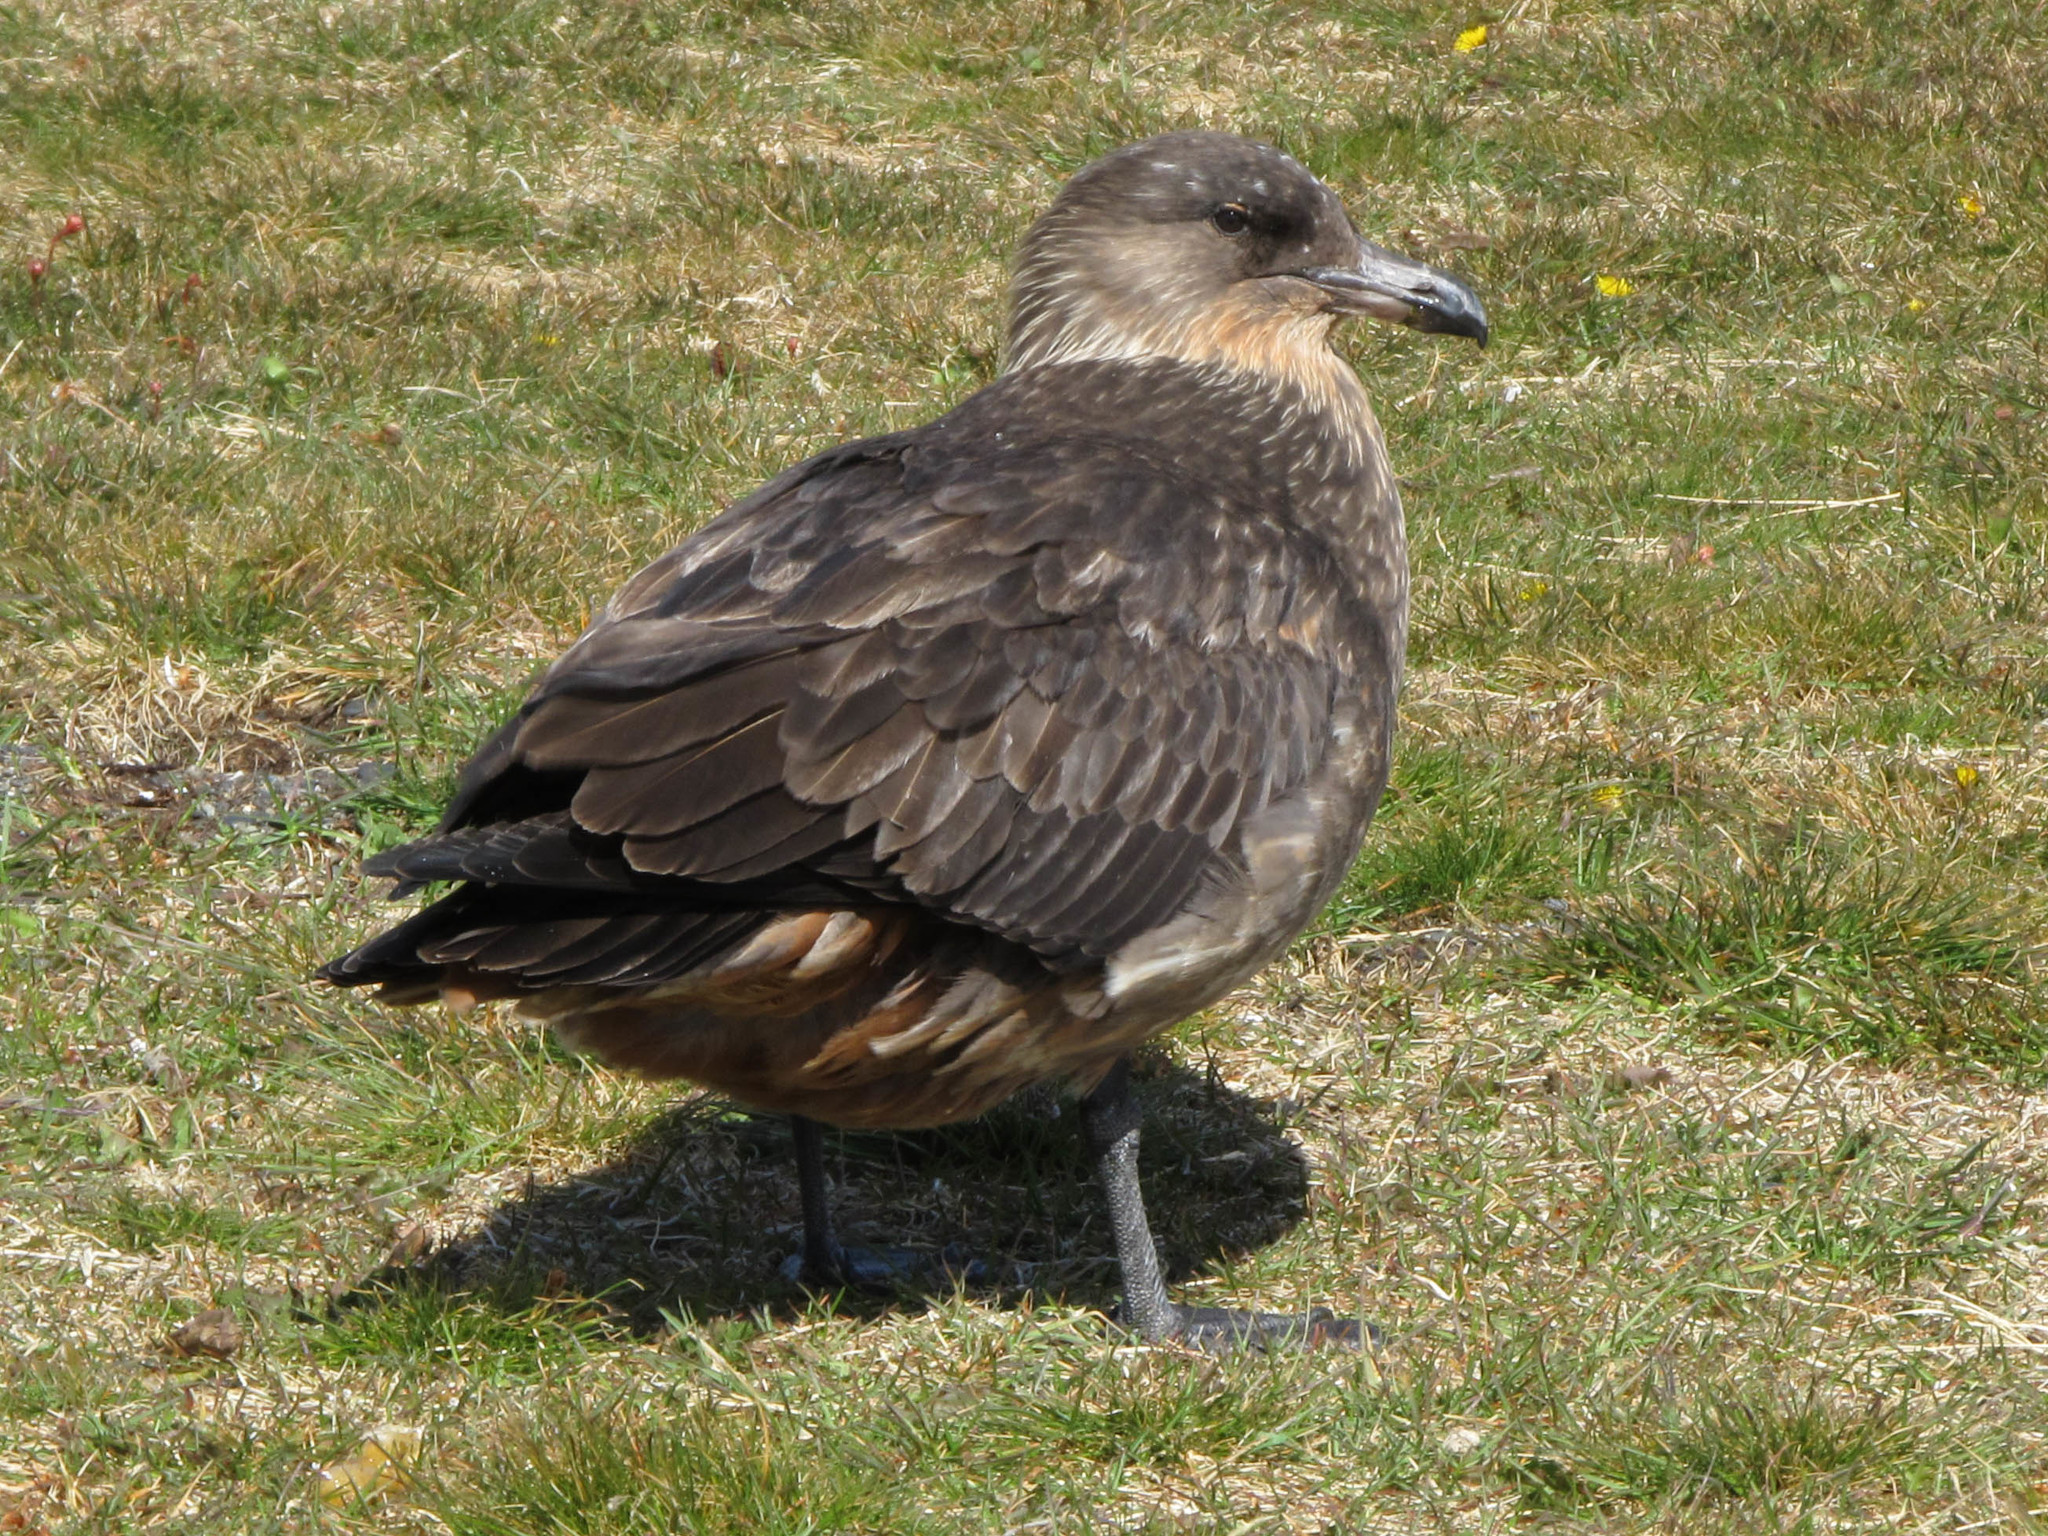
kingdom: Animalia
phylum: Chordata
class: Aves
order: Charadriiformes
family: Stercorariidae
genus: Stercorarius
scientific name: Stercorarius chilensis
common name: Chilean skua
